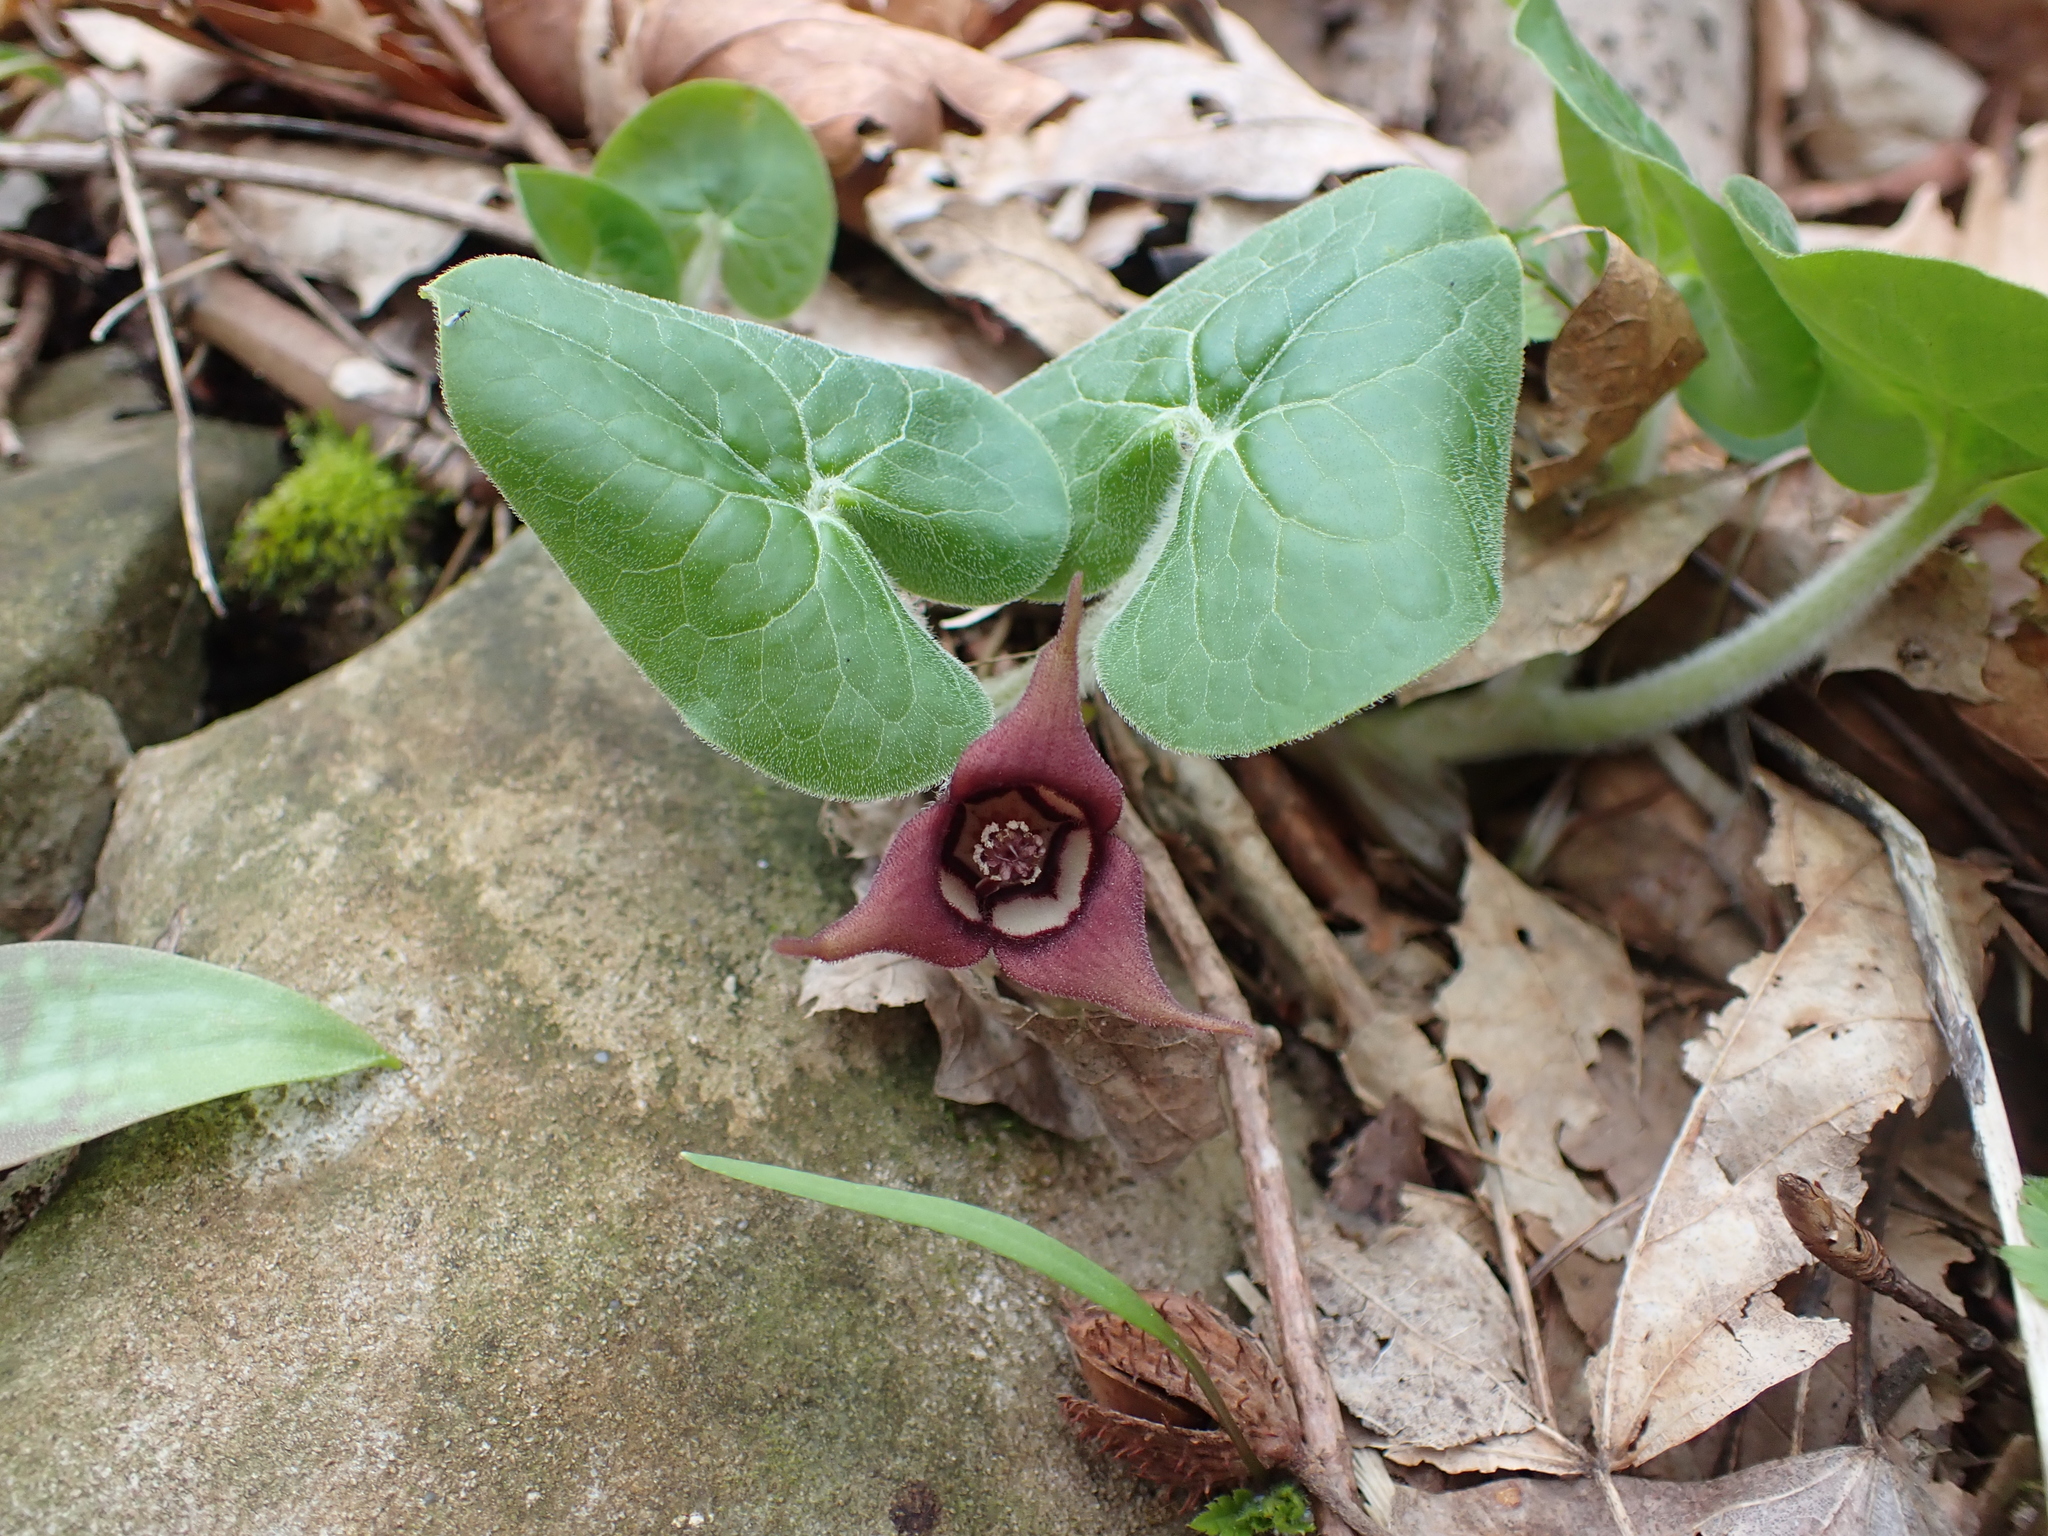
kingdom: Plantae
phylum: Tracheophyta
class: Magnoliopsida
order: Piperales
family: Aristolochiaceae
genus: Asarum
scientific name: Asarum canadense
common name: Wild ginger
